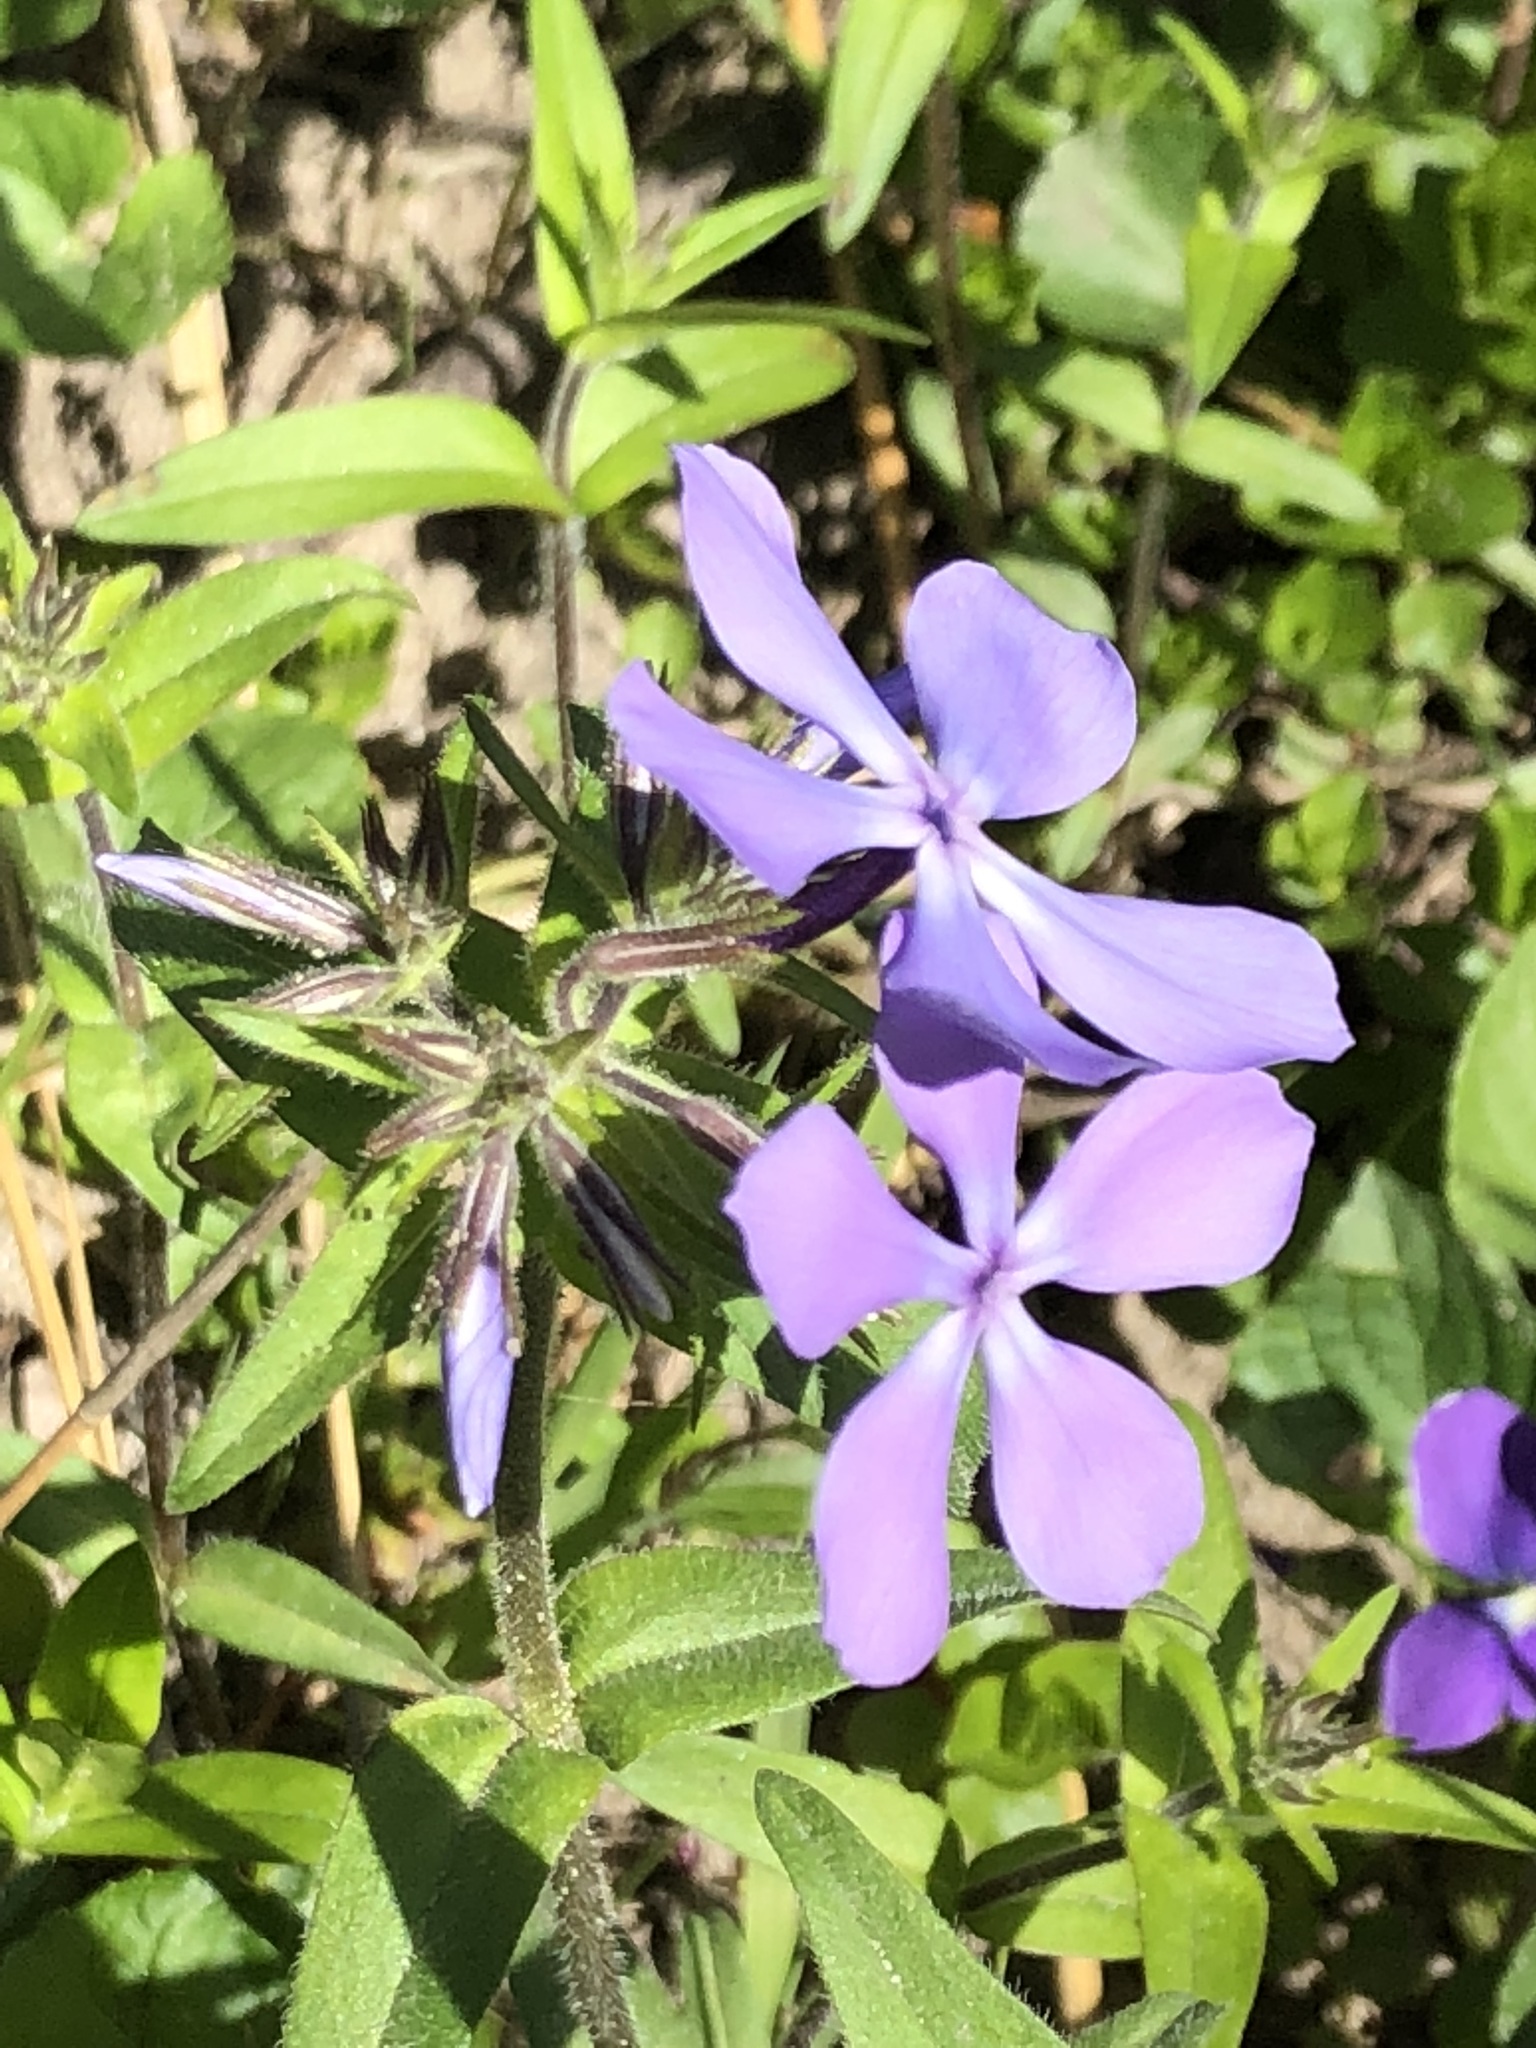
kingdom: Plantae
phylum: Tracheophyta
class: Magnoliopsida
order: Ericales
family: Polemoniaceae
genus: Phlox
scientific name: Phlox divaricata
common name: Blue phlox
